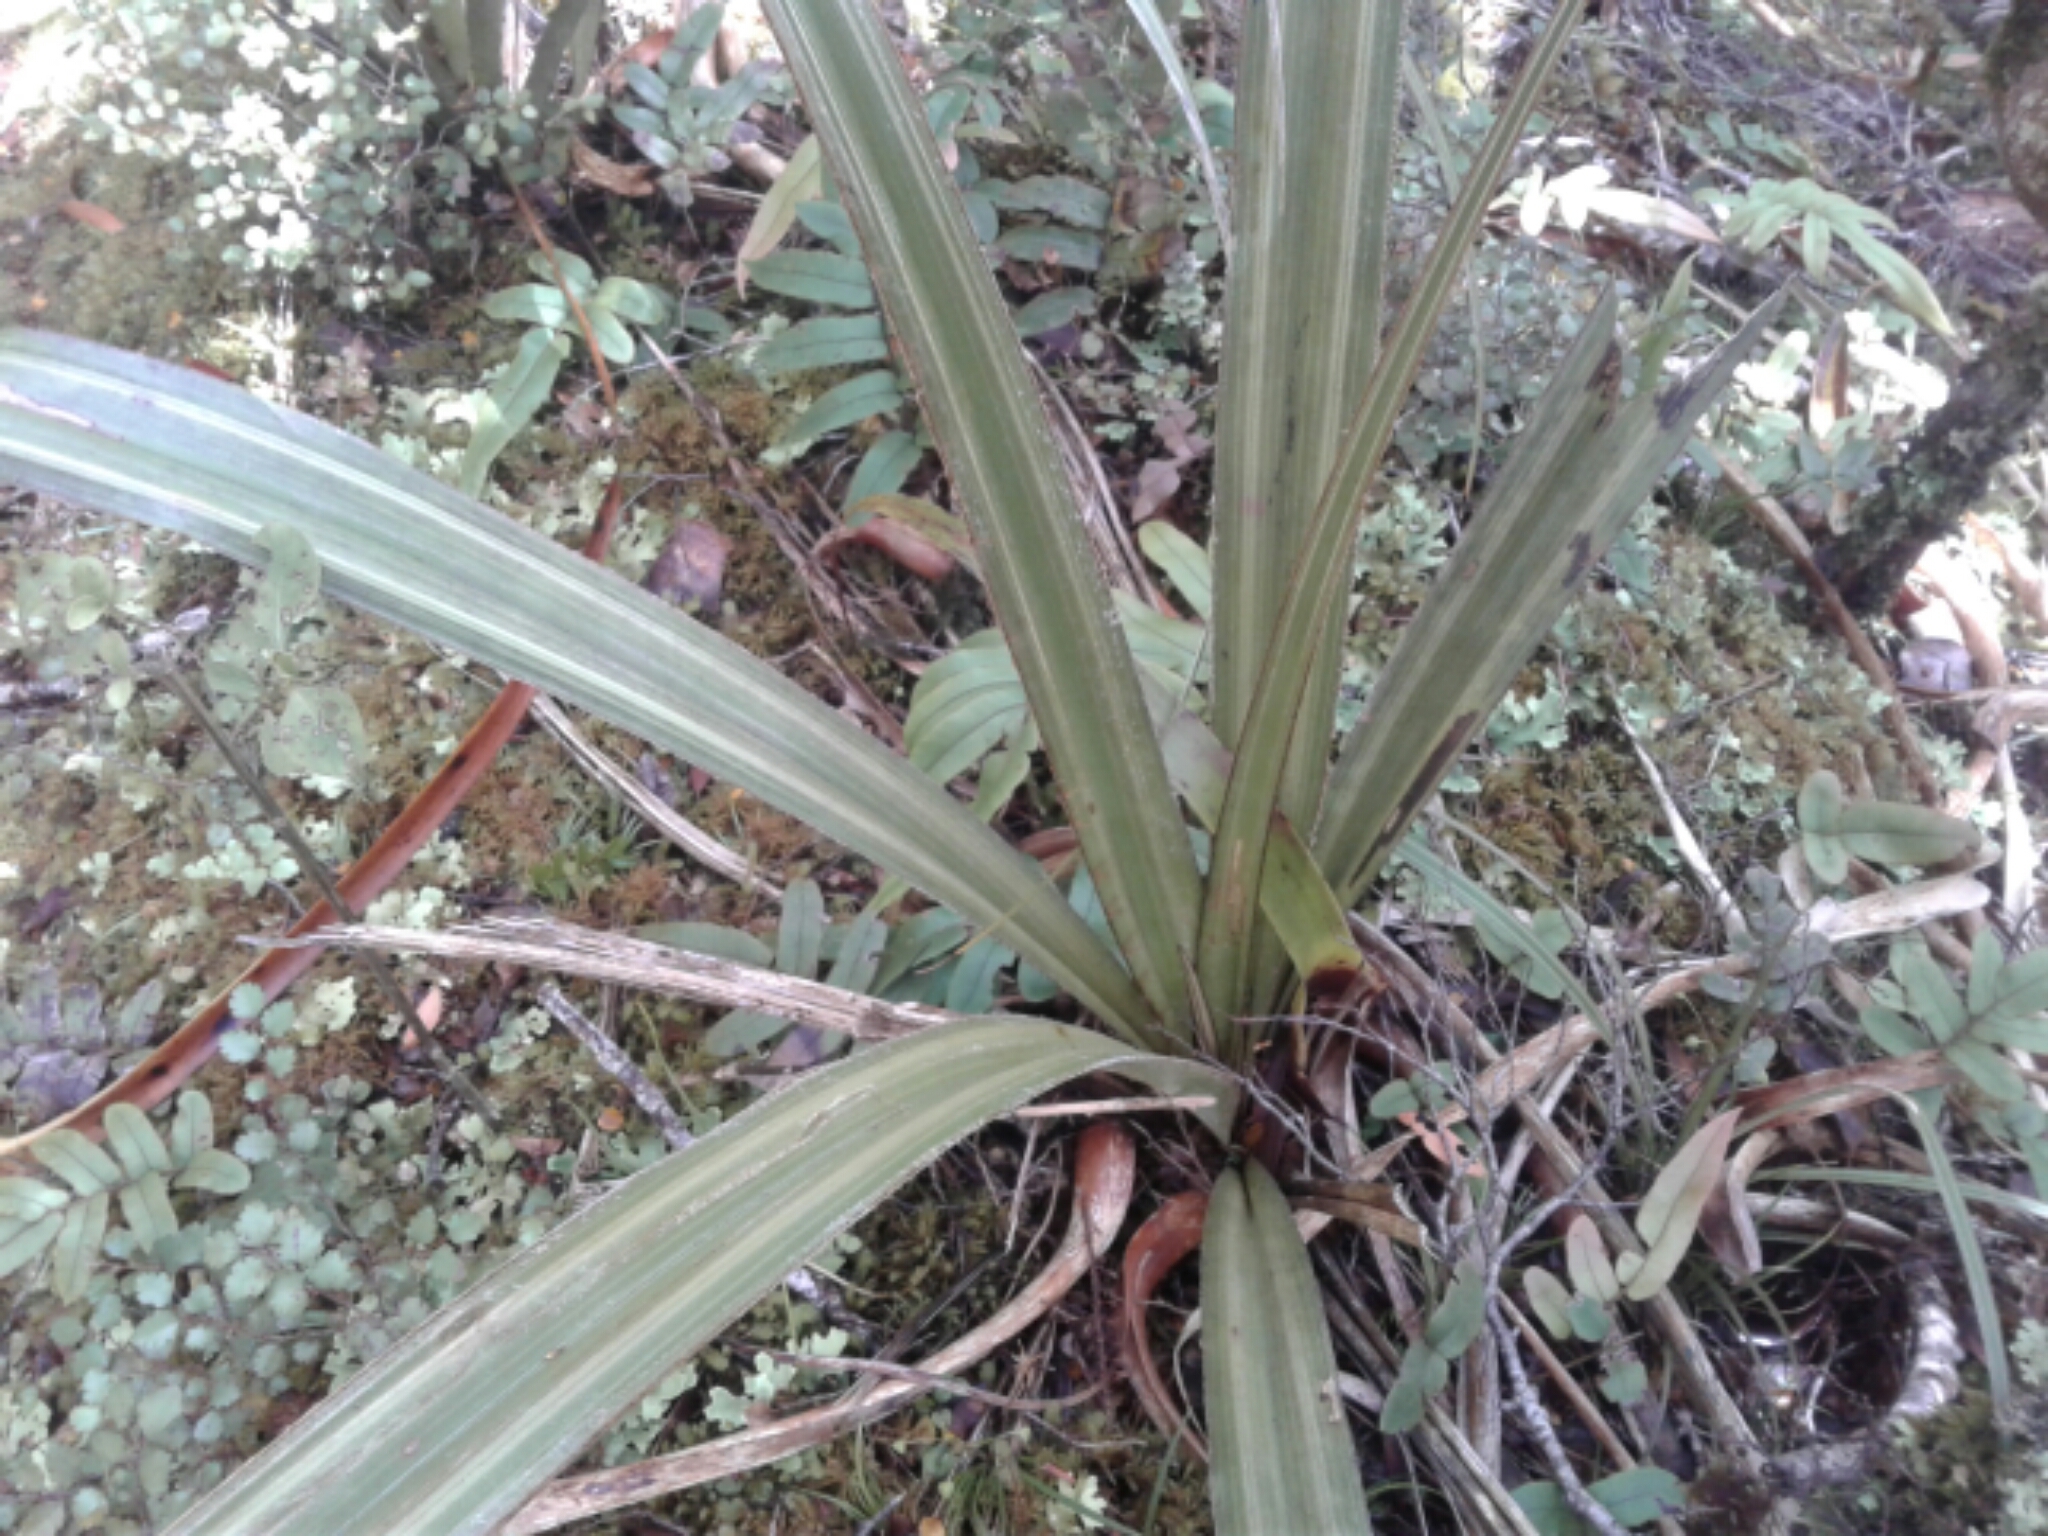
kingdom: Plantae
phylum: Tracheophyta
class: Liliopsida
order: Asparagales
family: Asteliaceae
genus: Astelia
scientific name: Astelia nervosa
